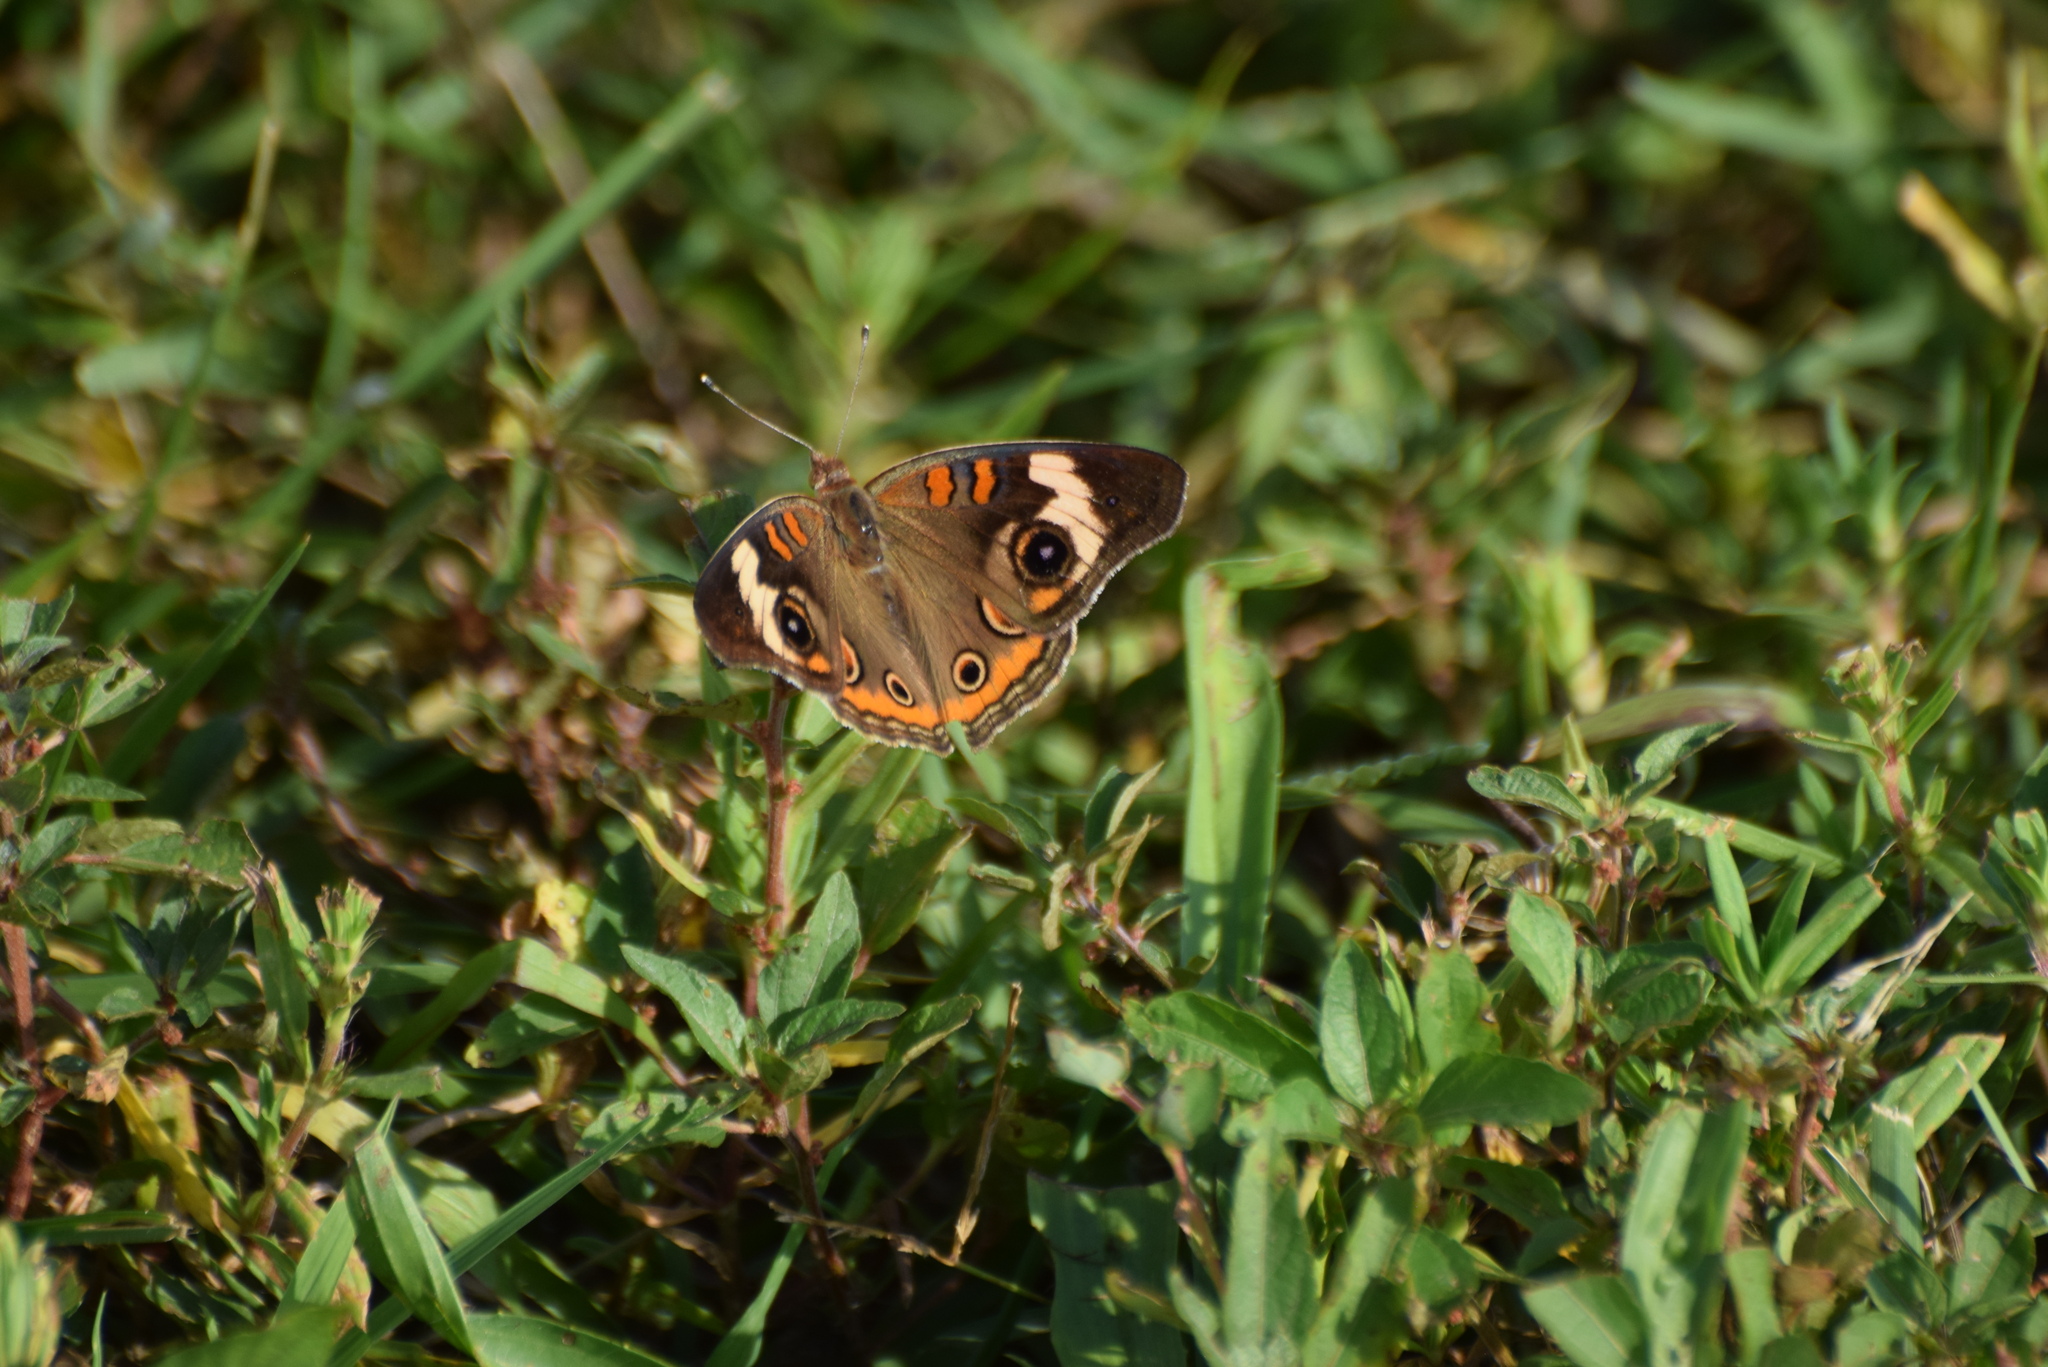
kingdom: Animalia
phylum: Arthropoda
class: Insecta
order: Lepidoptera
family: Nymphalidae
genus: Junonia
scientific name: Junonia coenia
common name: Common buckeye
